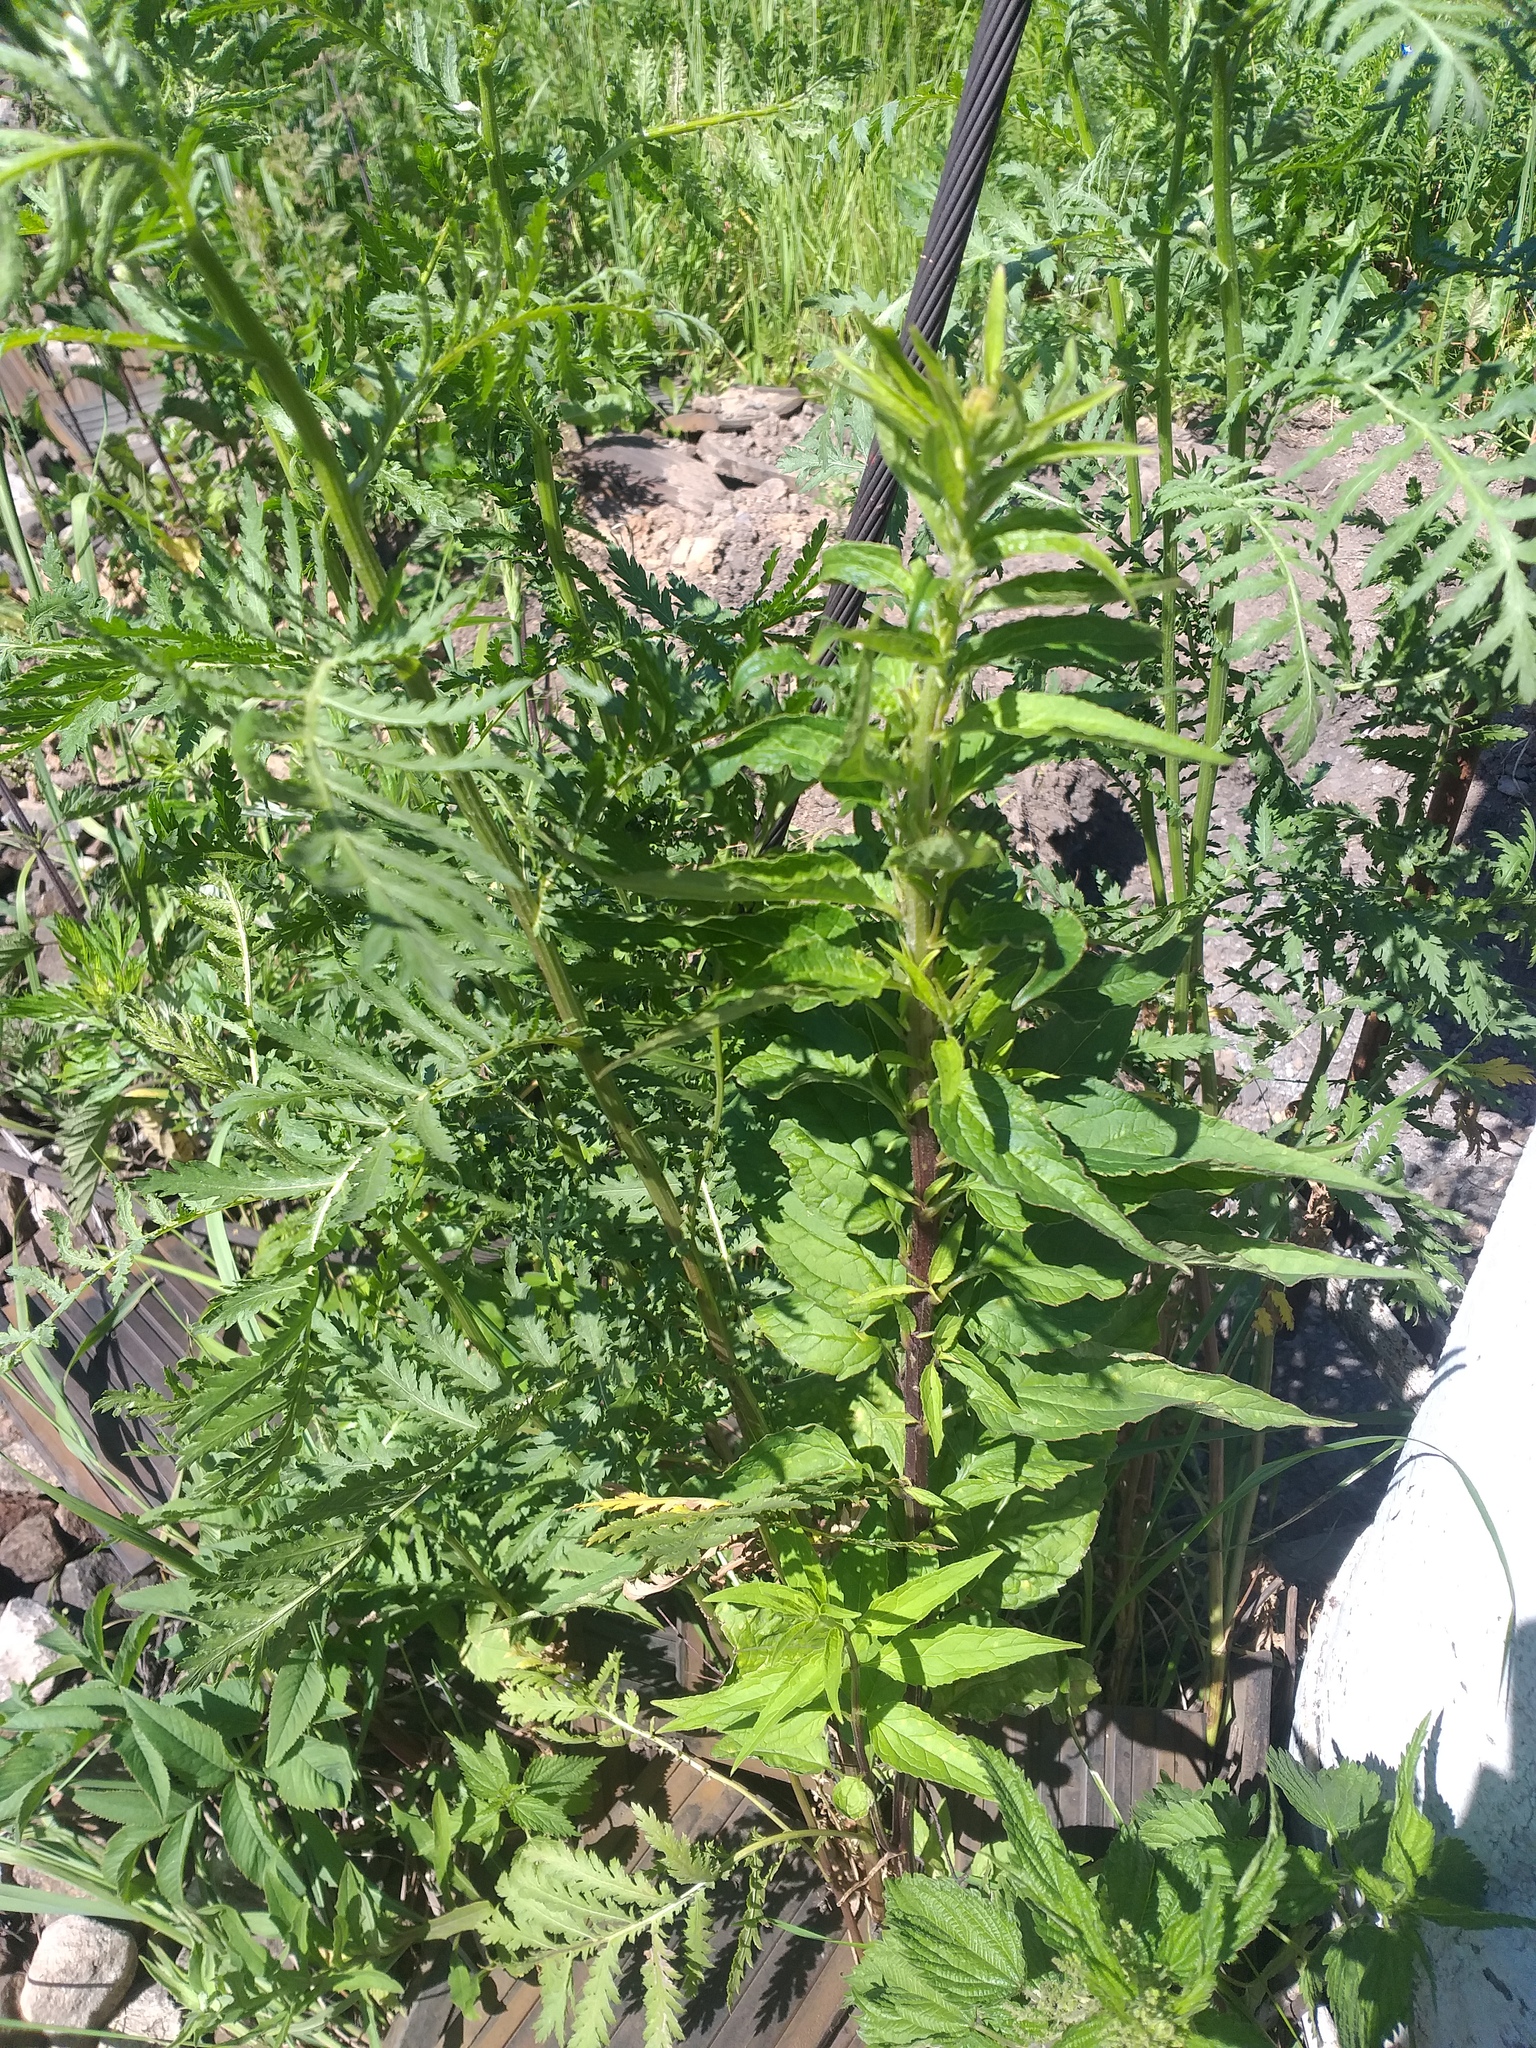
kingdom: Plantae
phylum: Tracheophyta
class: Magnoliopsida
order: Asterales
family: Campanulaceae
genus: Campanula
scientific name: Campanula rapunculoides
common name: Creeping bellflower
